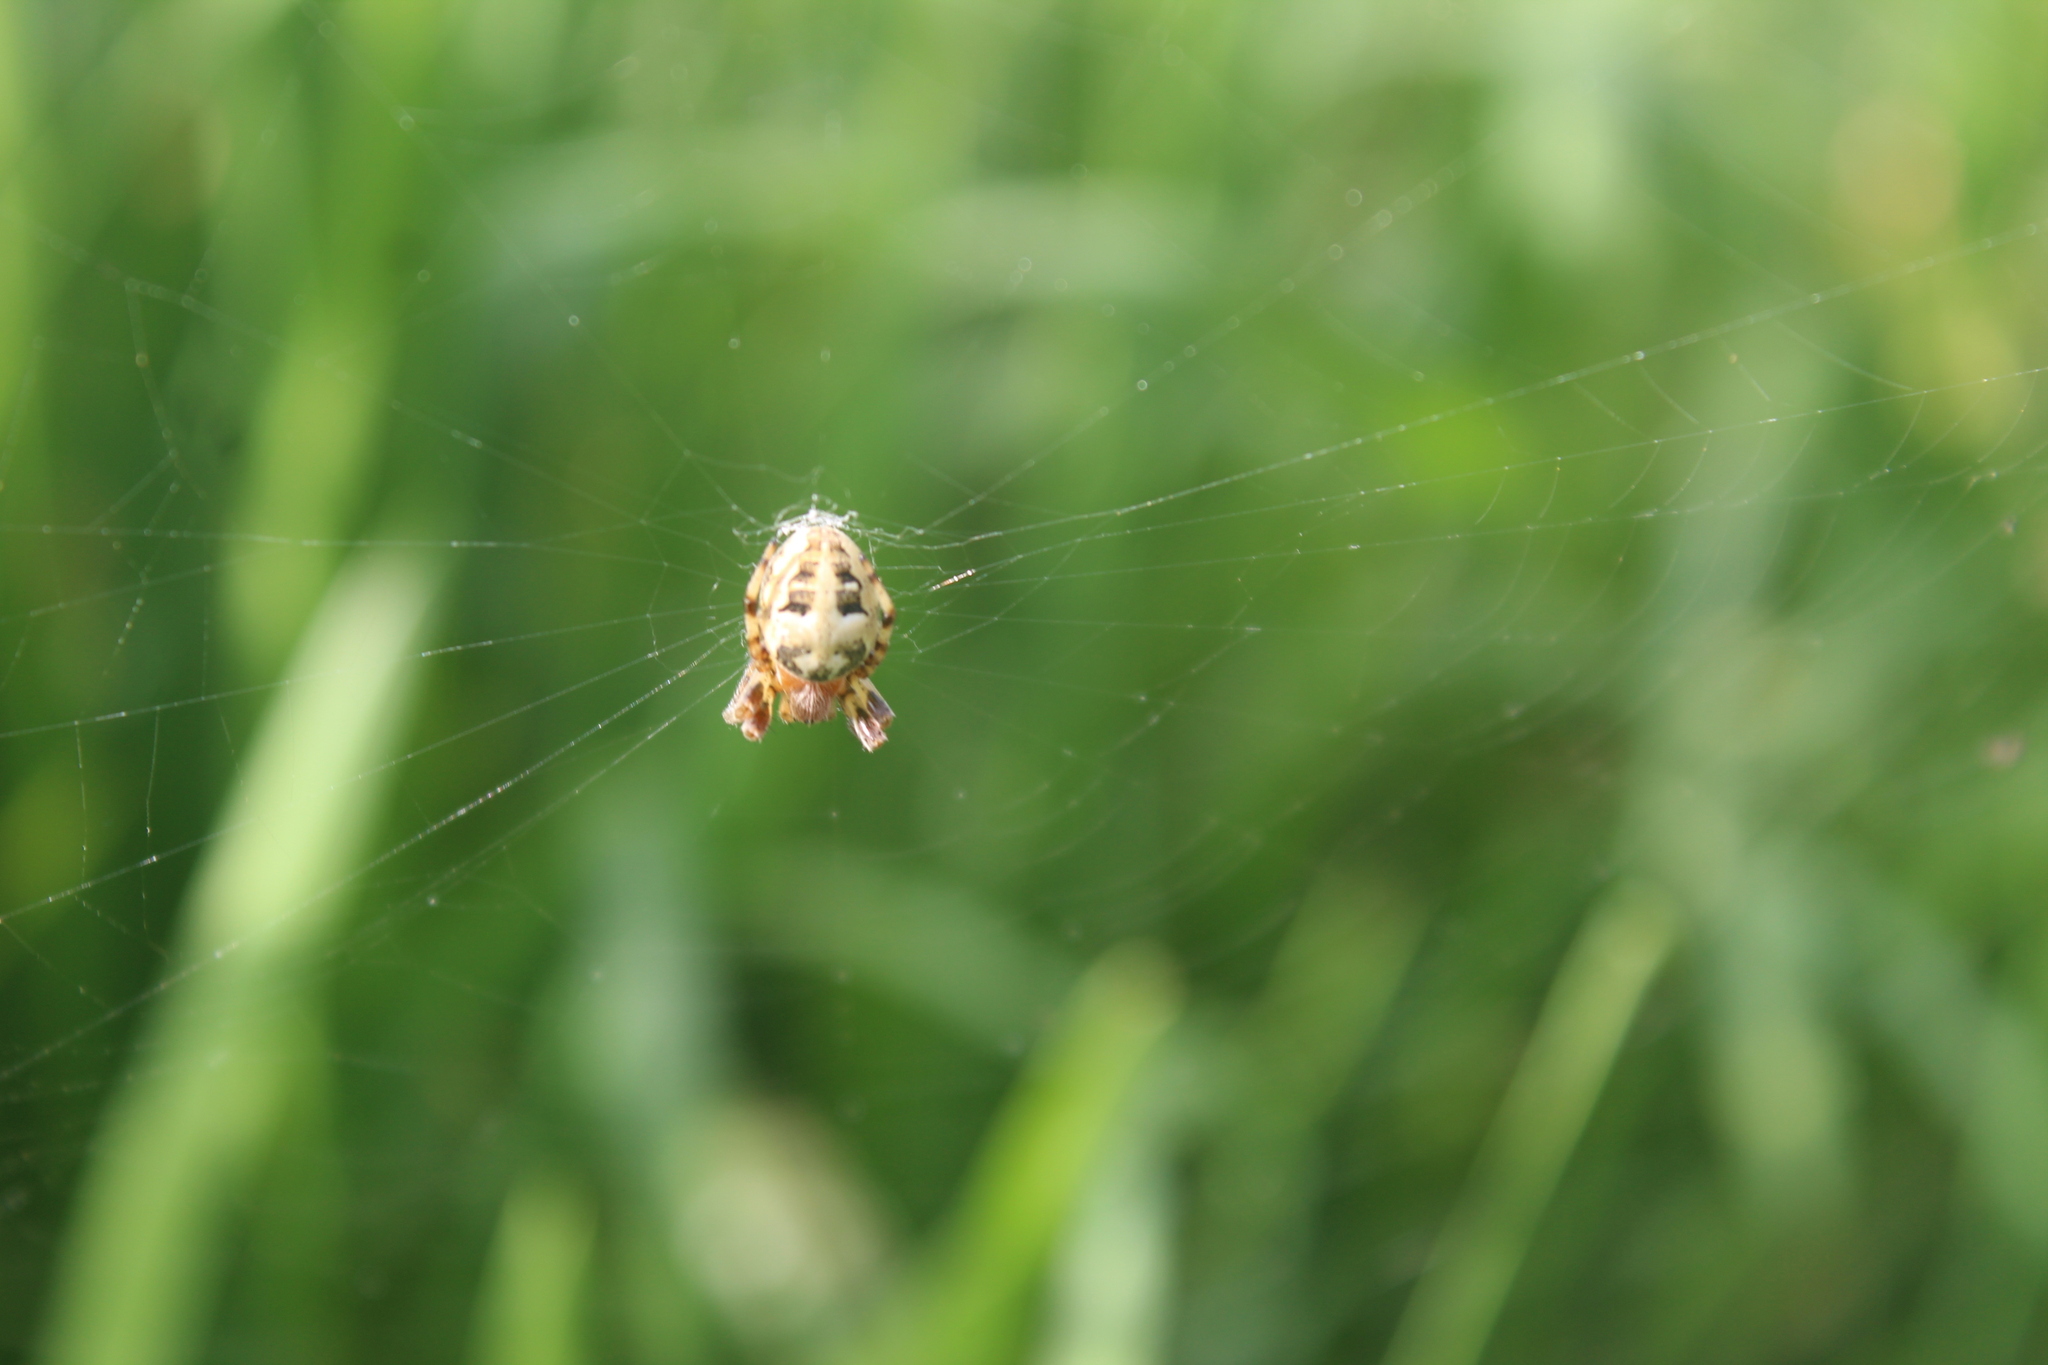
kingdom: Animalia
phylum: Arthropoda
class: Arachnida
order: Araneae
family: Araneidae
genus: Larinioides
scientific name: Larinioides cornutus
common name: Furrow orbweaver
